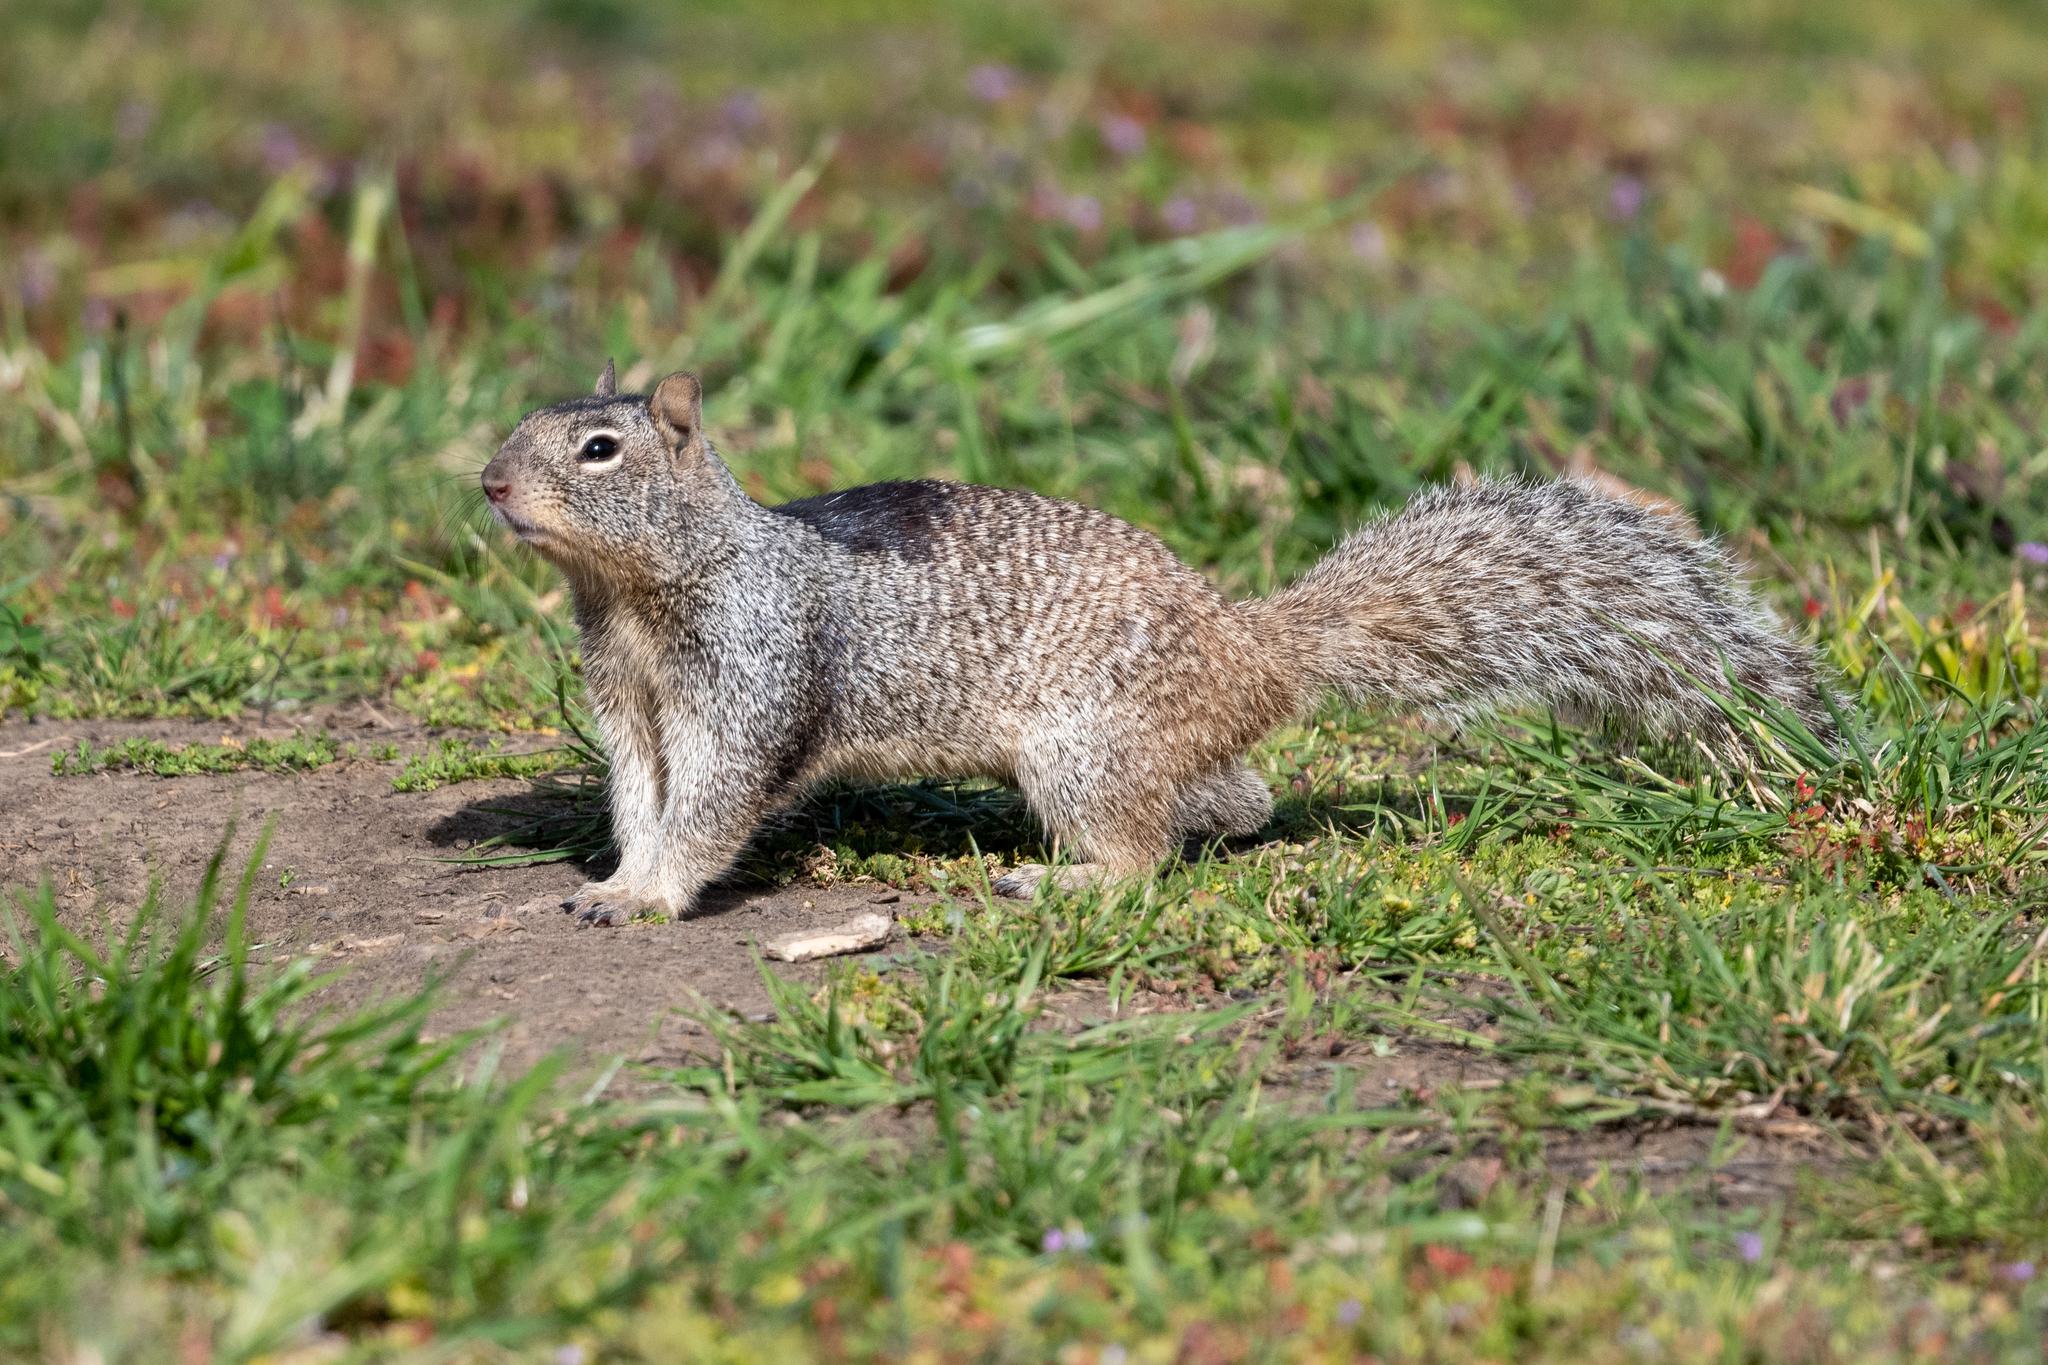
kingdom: Animalia
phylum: Chordata
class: Mammalia
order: Rodentia
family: Sciuridae
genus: Otospermophilus
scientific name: Otospermophilus beecheyi
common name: California ground squirrel
